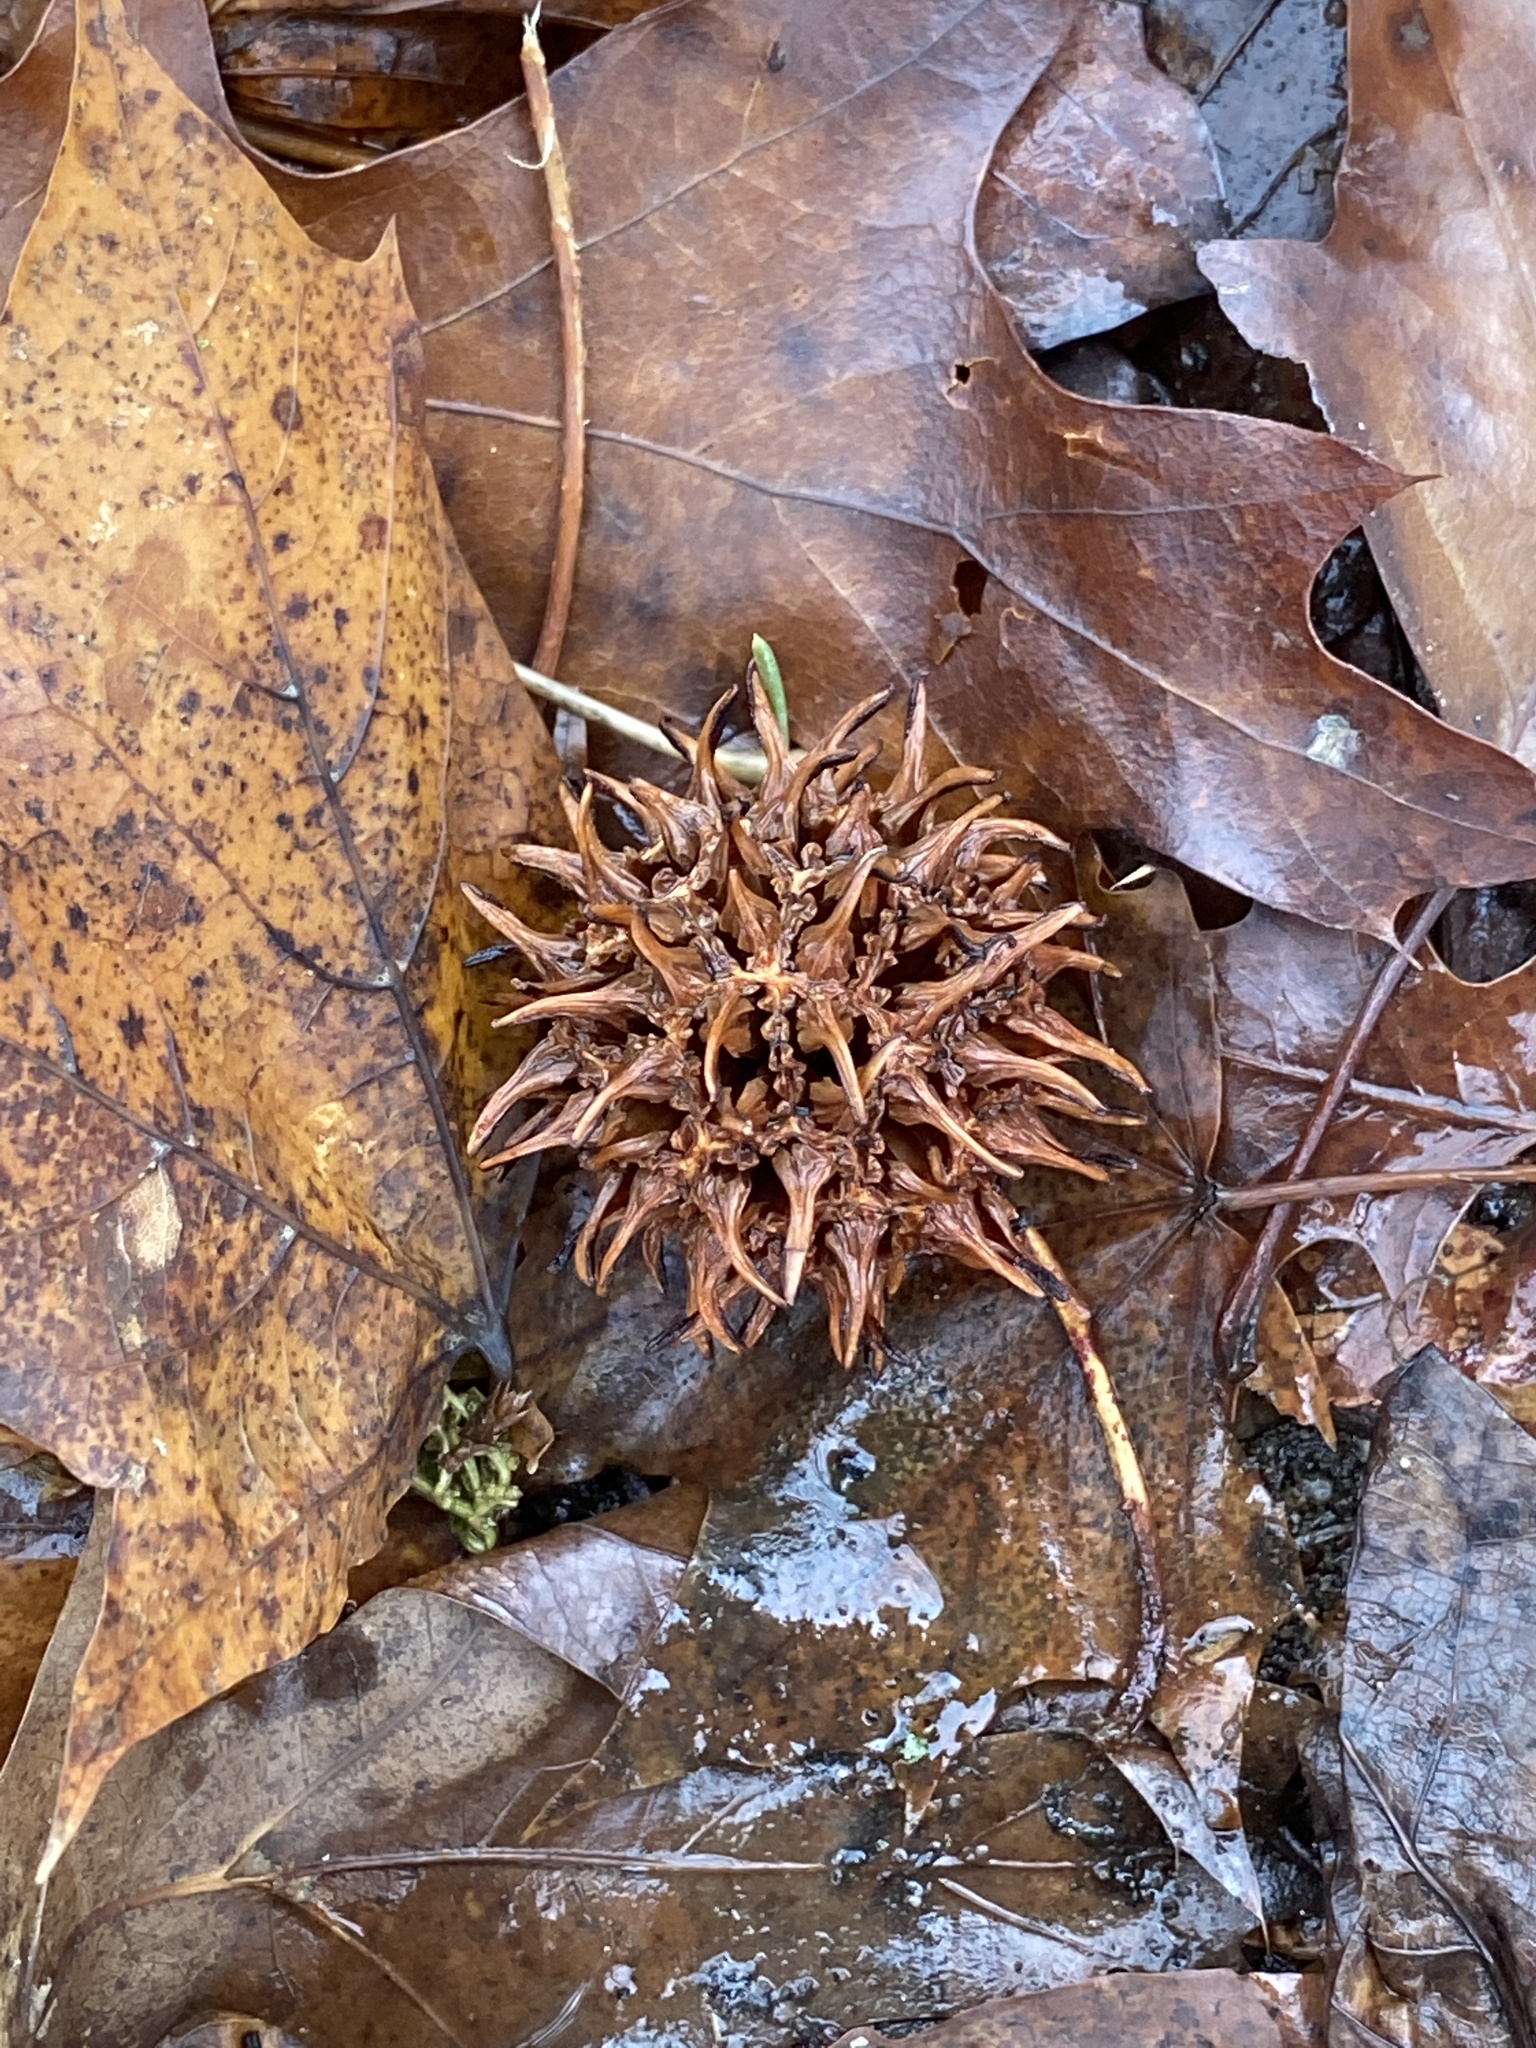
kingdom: Plantae
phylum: Tracheophyta
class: Magnoliopsida
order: Saxifragales
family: Altingiaceae
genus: Liquidambar
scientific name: Liquidambar styraciflua
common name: Sweet gum
